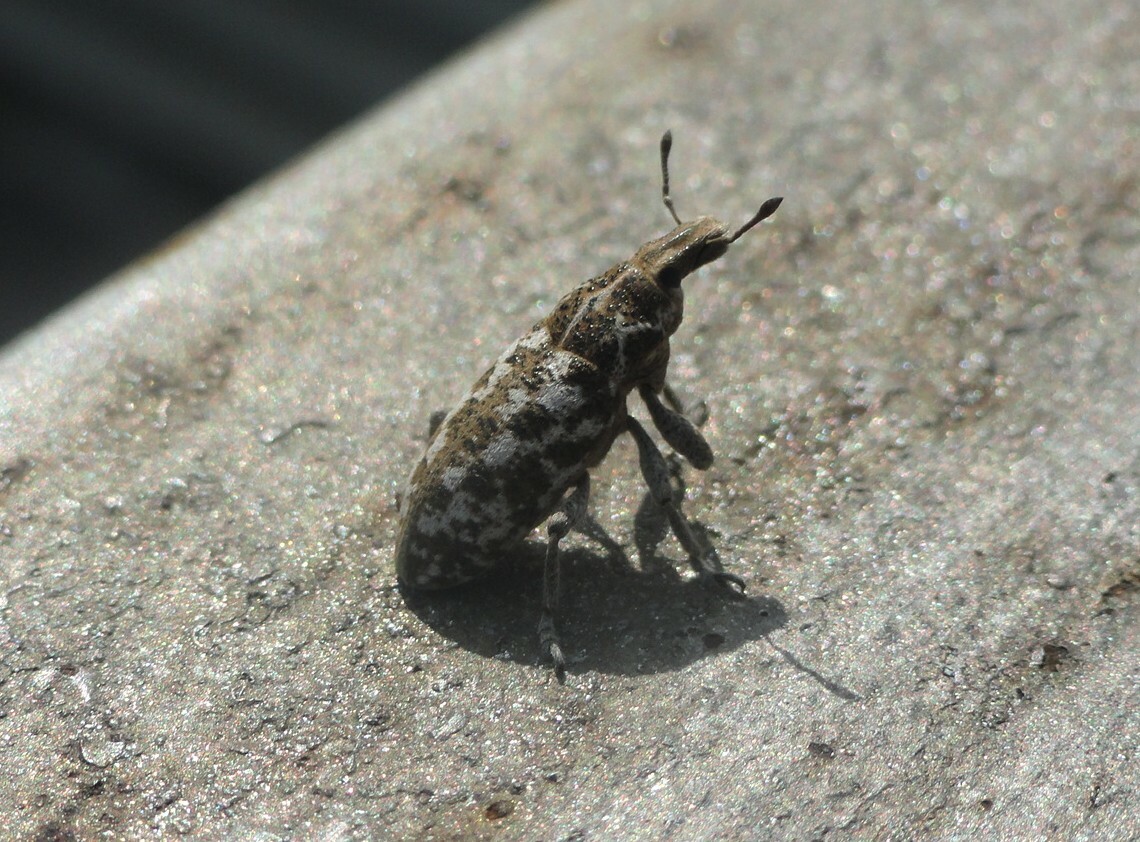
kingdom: Animalia
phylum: Arthropoda
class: Insecta
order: Coleoptera
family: Curculionidae
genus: Cyphocleonus
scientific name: Cyphocleonus dealbatus
